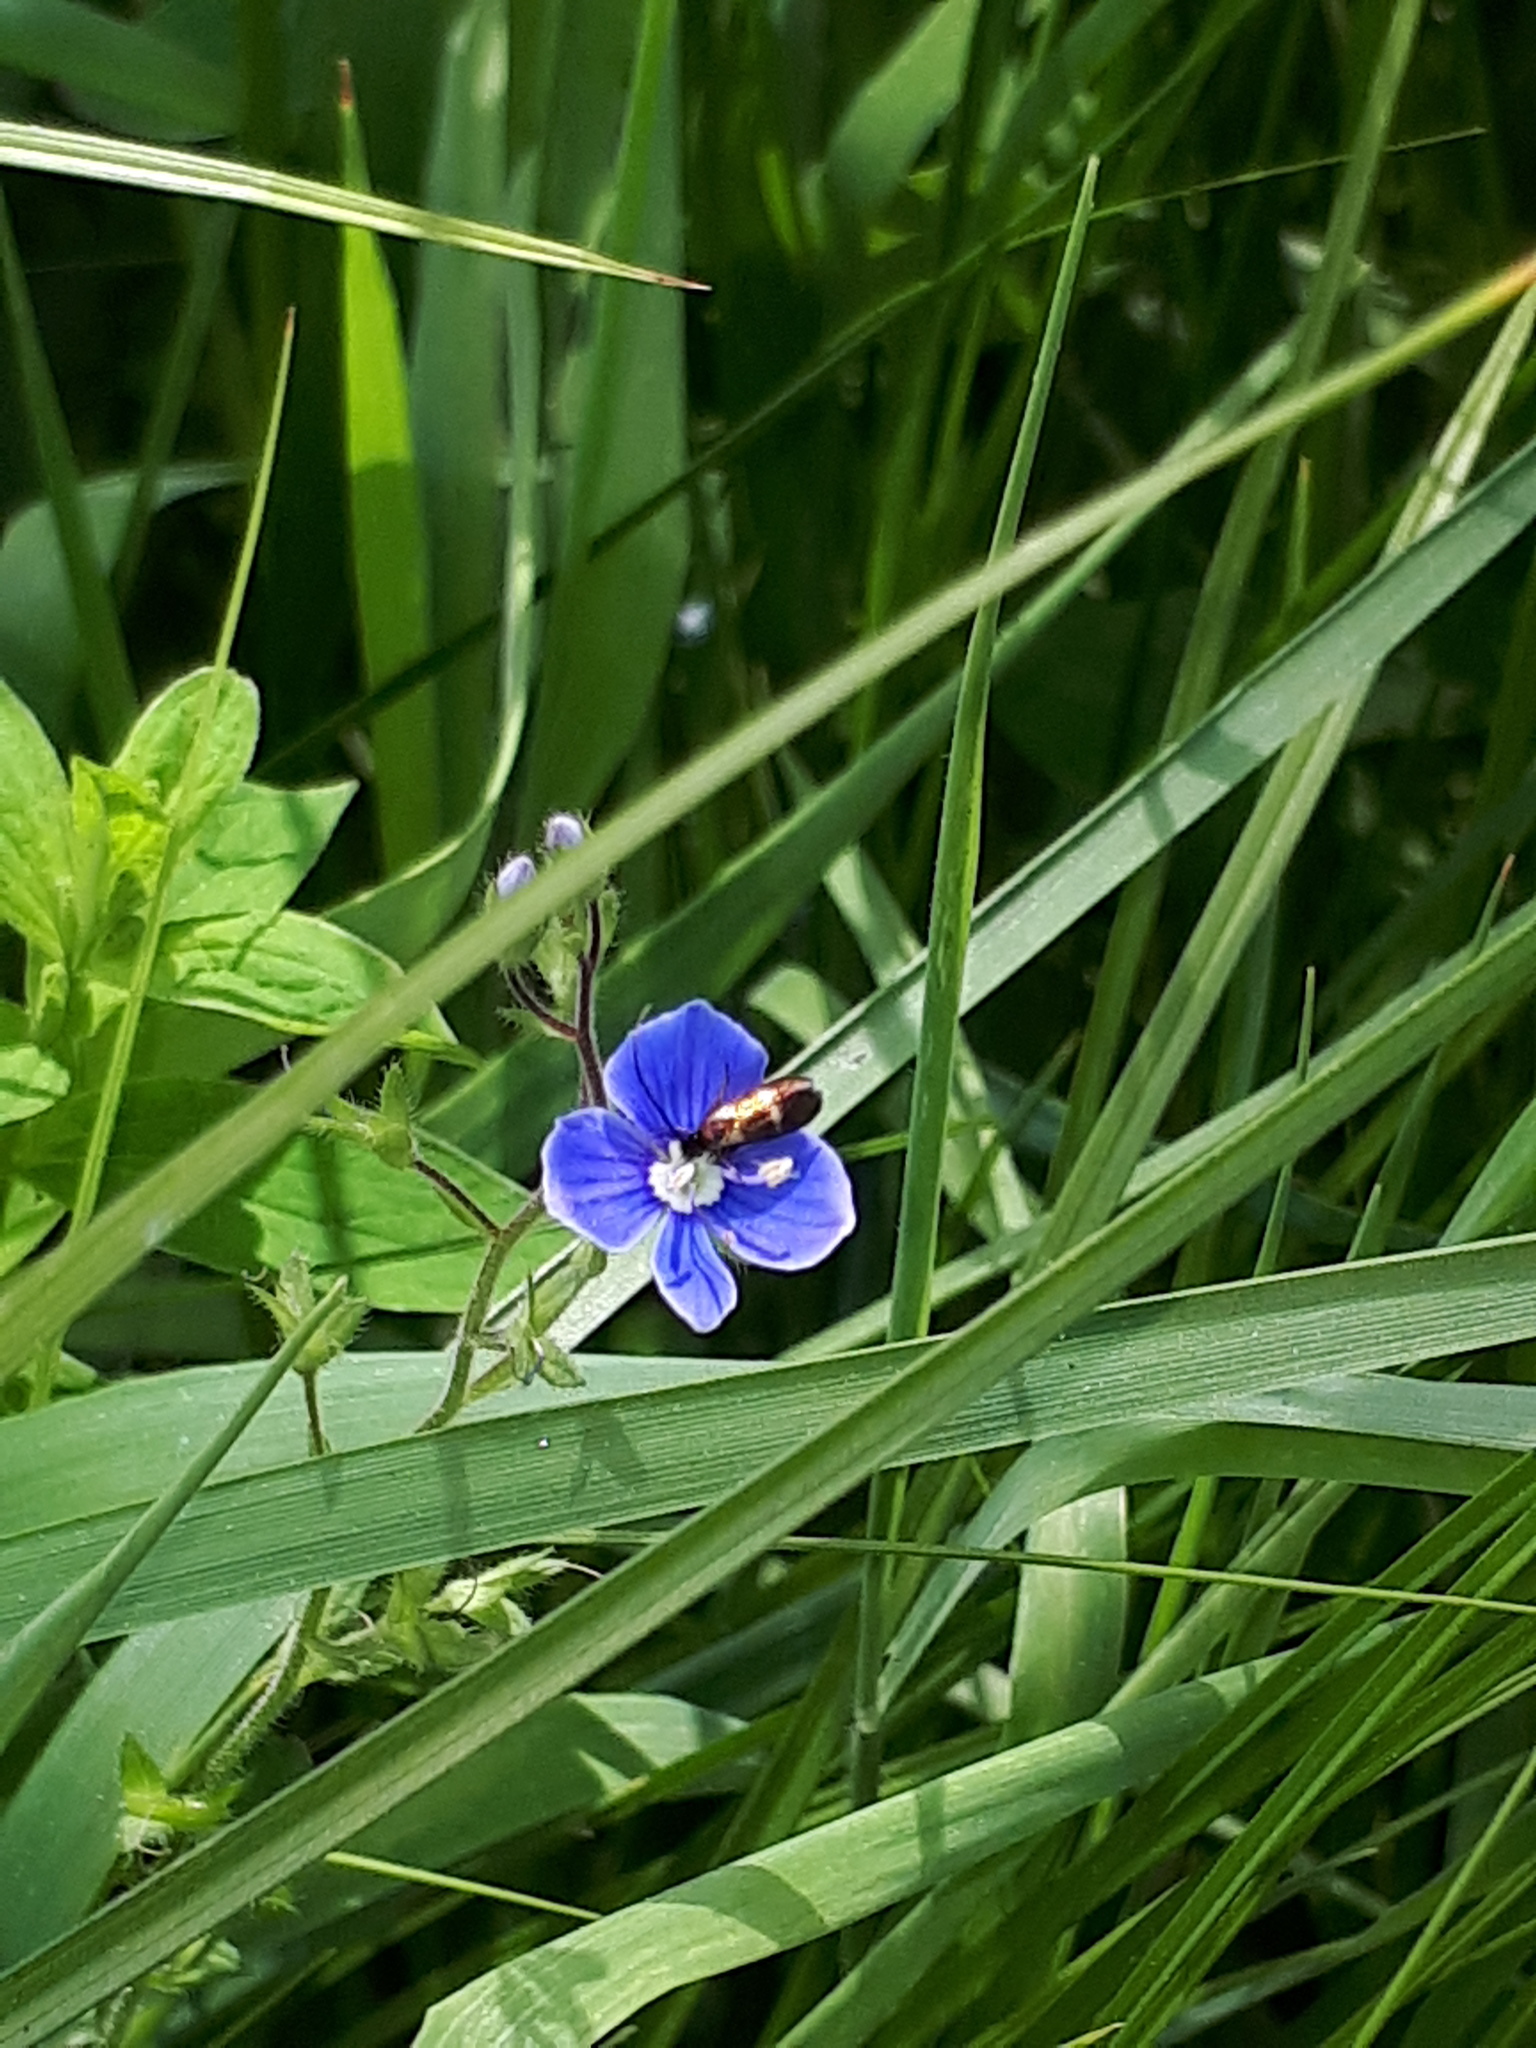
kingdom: Animalia
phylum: Arthropoda
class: Insecta
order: Lepidoptera
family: Adelidae
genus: Cauchas
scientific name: Cauchas fibulella
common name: Little long-horn
